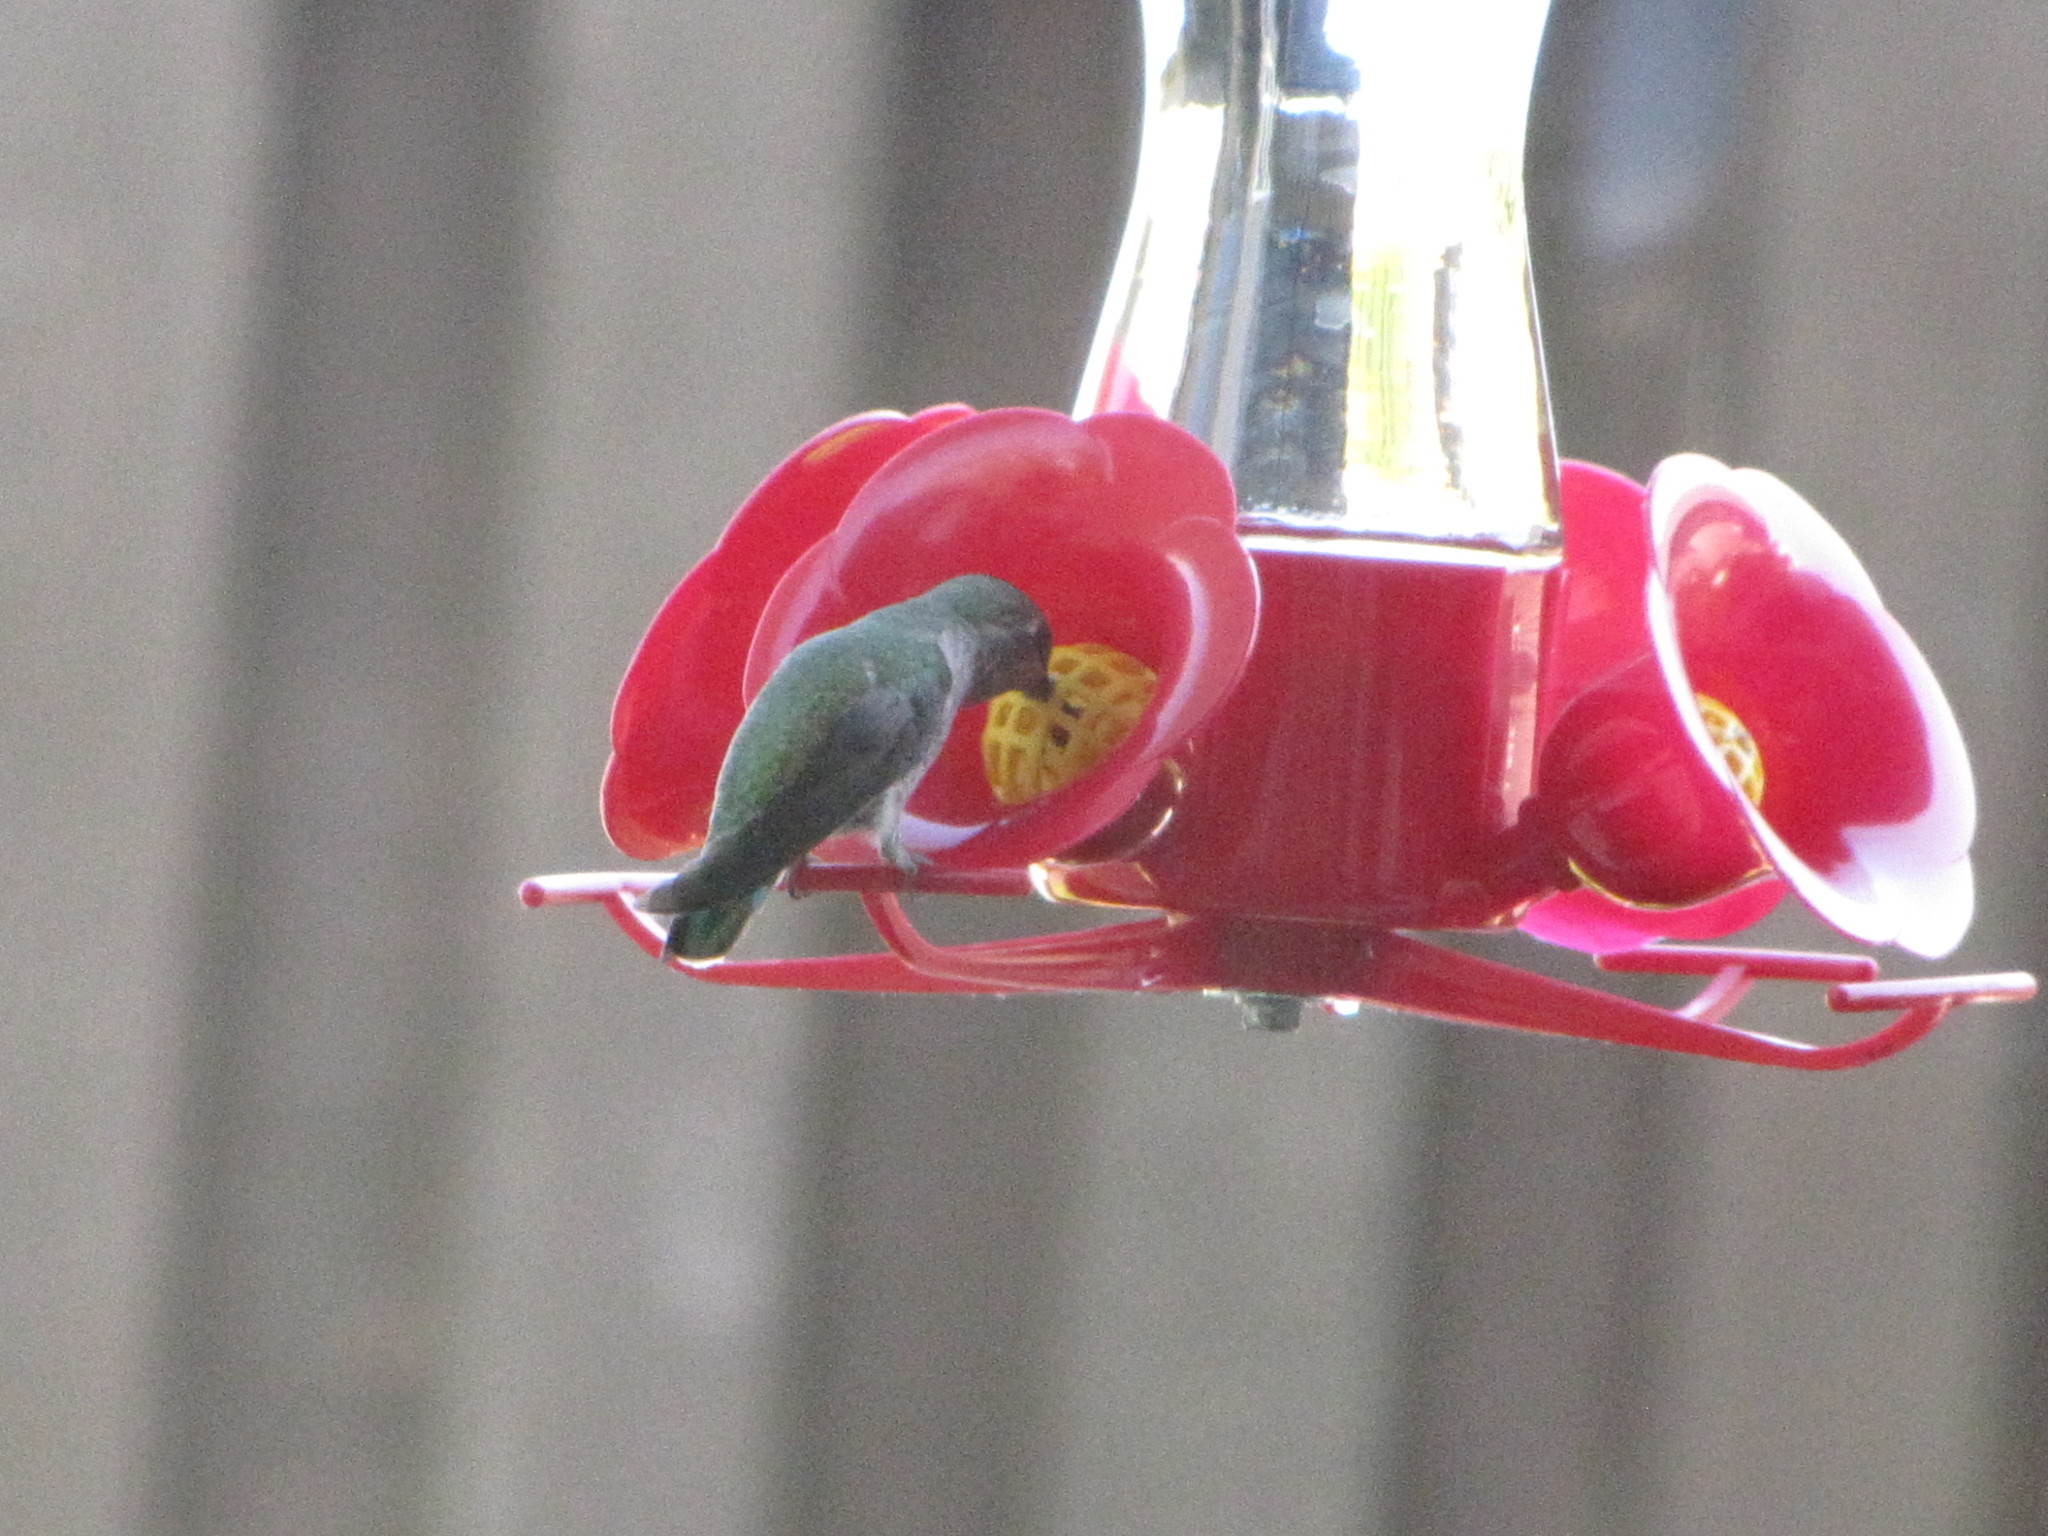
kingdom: Animalia
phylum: Chordata
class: Aves
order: Apodiformes
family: Trochilidae
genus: Calypte
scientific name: Calypte anna
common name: Anna's hummingbird
